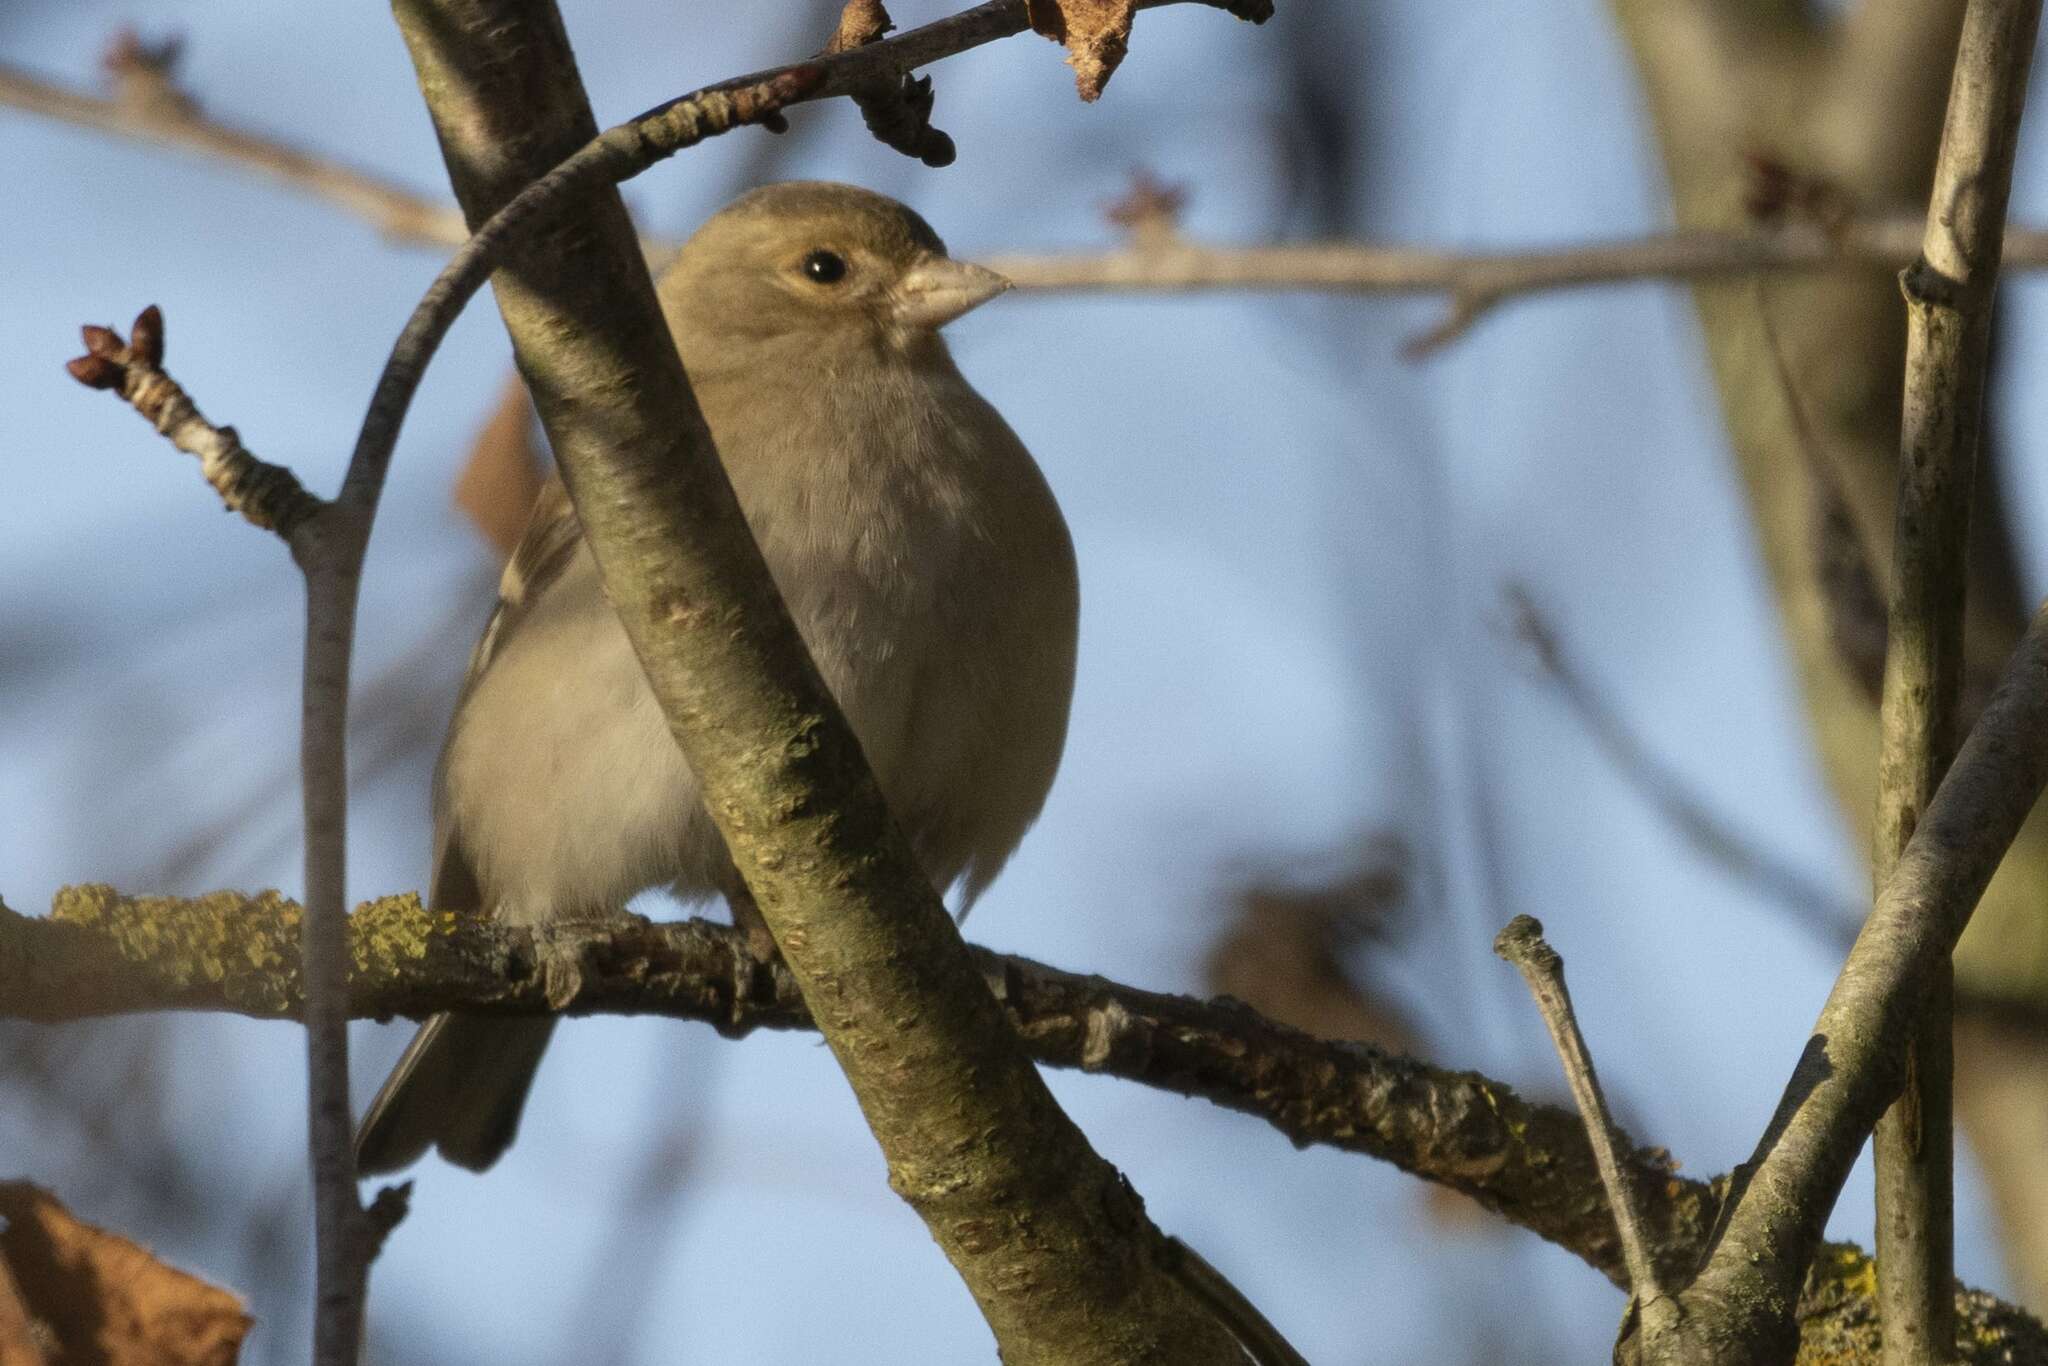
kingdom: Animalia
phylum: Chordata
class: Aves
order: Passeriformes
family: Fringillidae
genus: Fringilla
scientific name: Fringilla coelebs
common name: Common chaffinch
